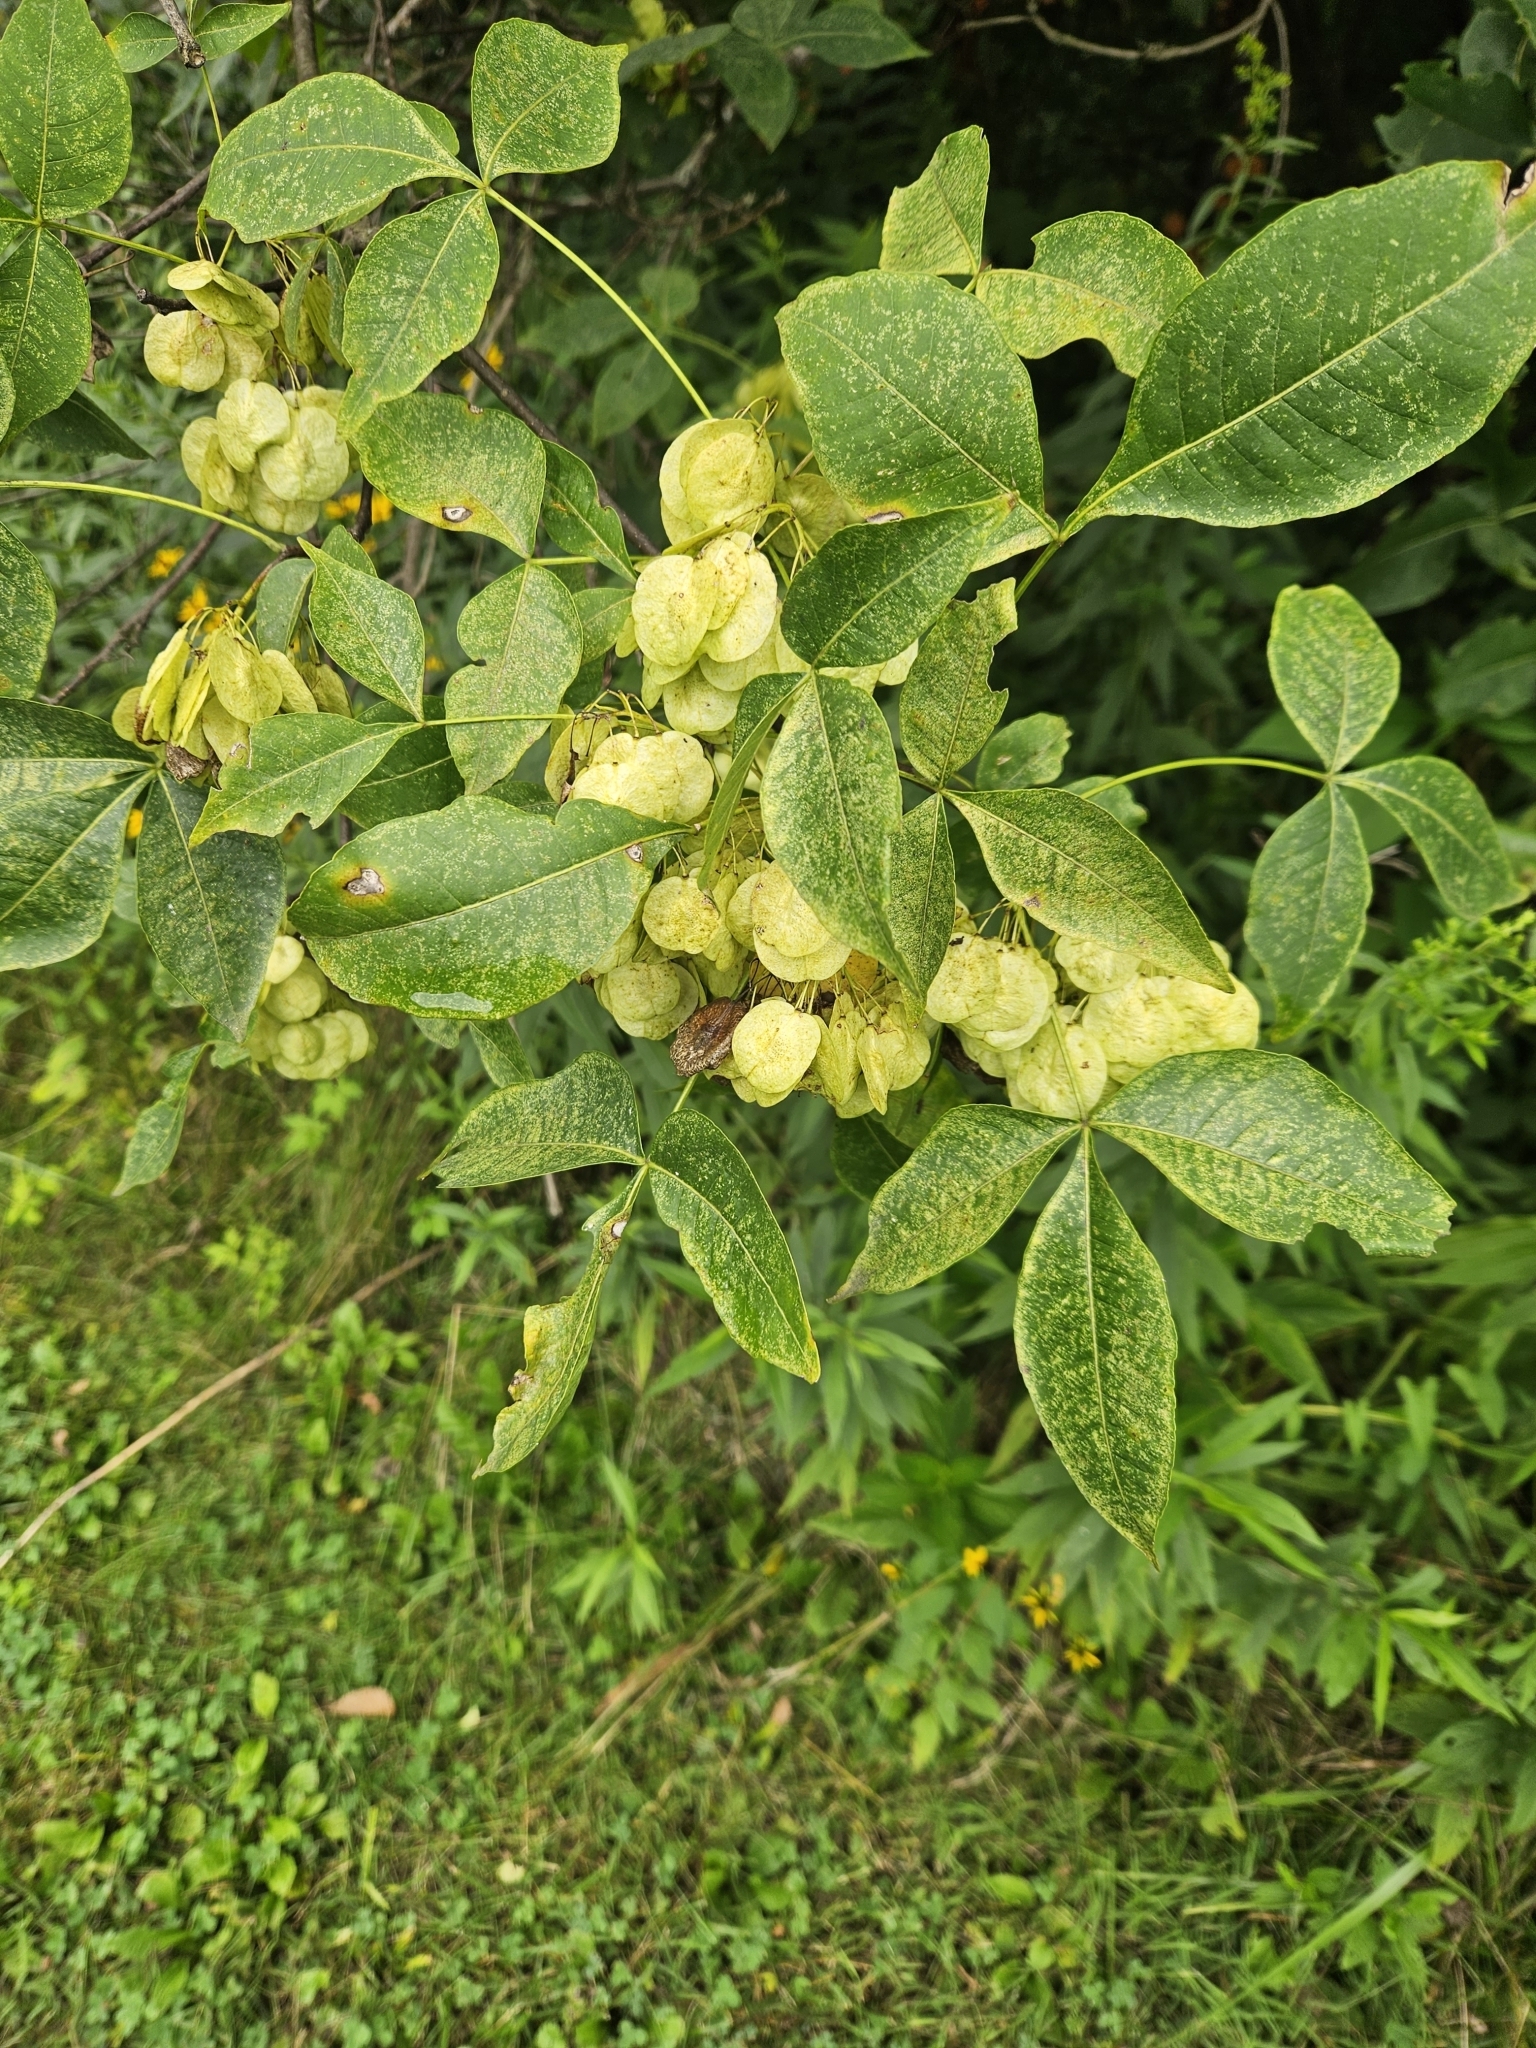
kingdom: Plantae
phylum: Tracheophyta
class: Magnoliopsida
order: Sapindales
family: Rutaceae
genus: Ptelea
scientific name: Ptelea trifoliata
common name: Common hop-tree
